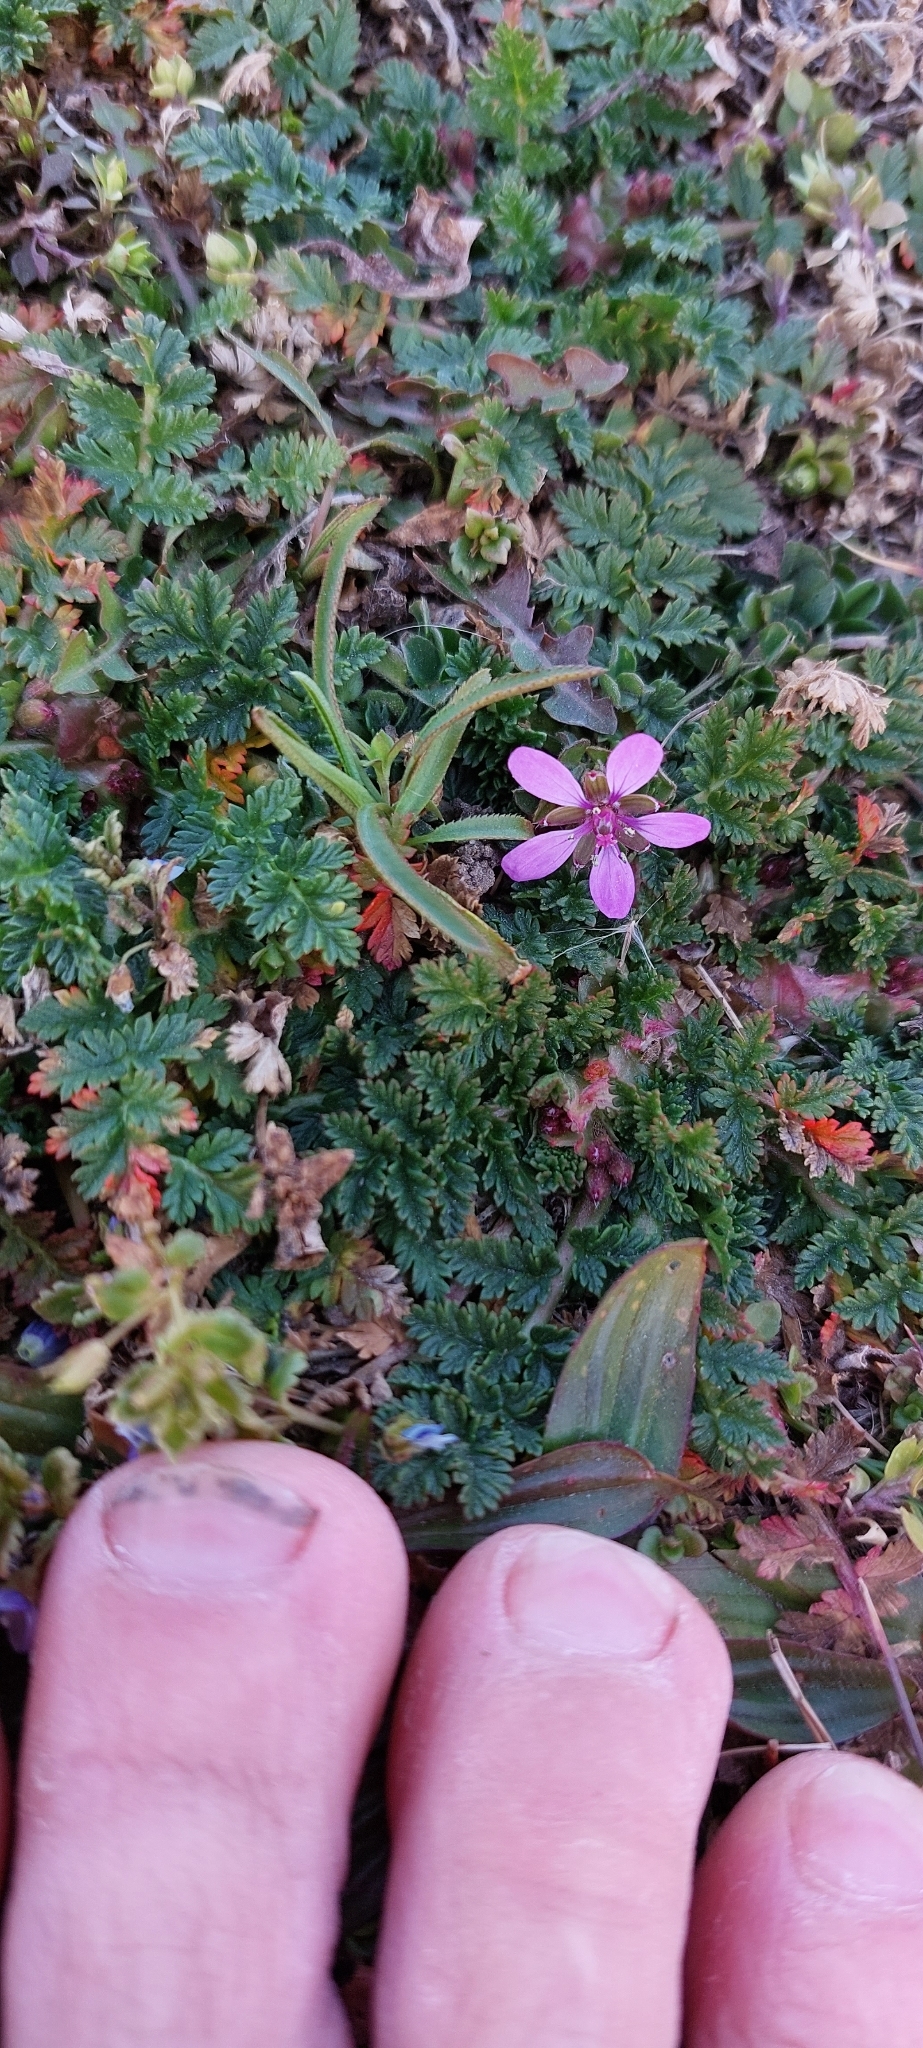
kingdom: Plantae
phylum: Tracheophyta
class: Magnoliopsida
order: Geraniales
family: Geraniaceae
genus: Erodium
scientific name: Erodium cicutarium
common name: Common stork's-bill
